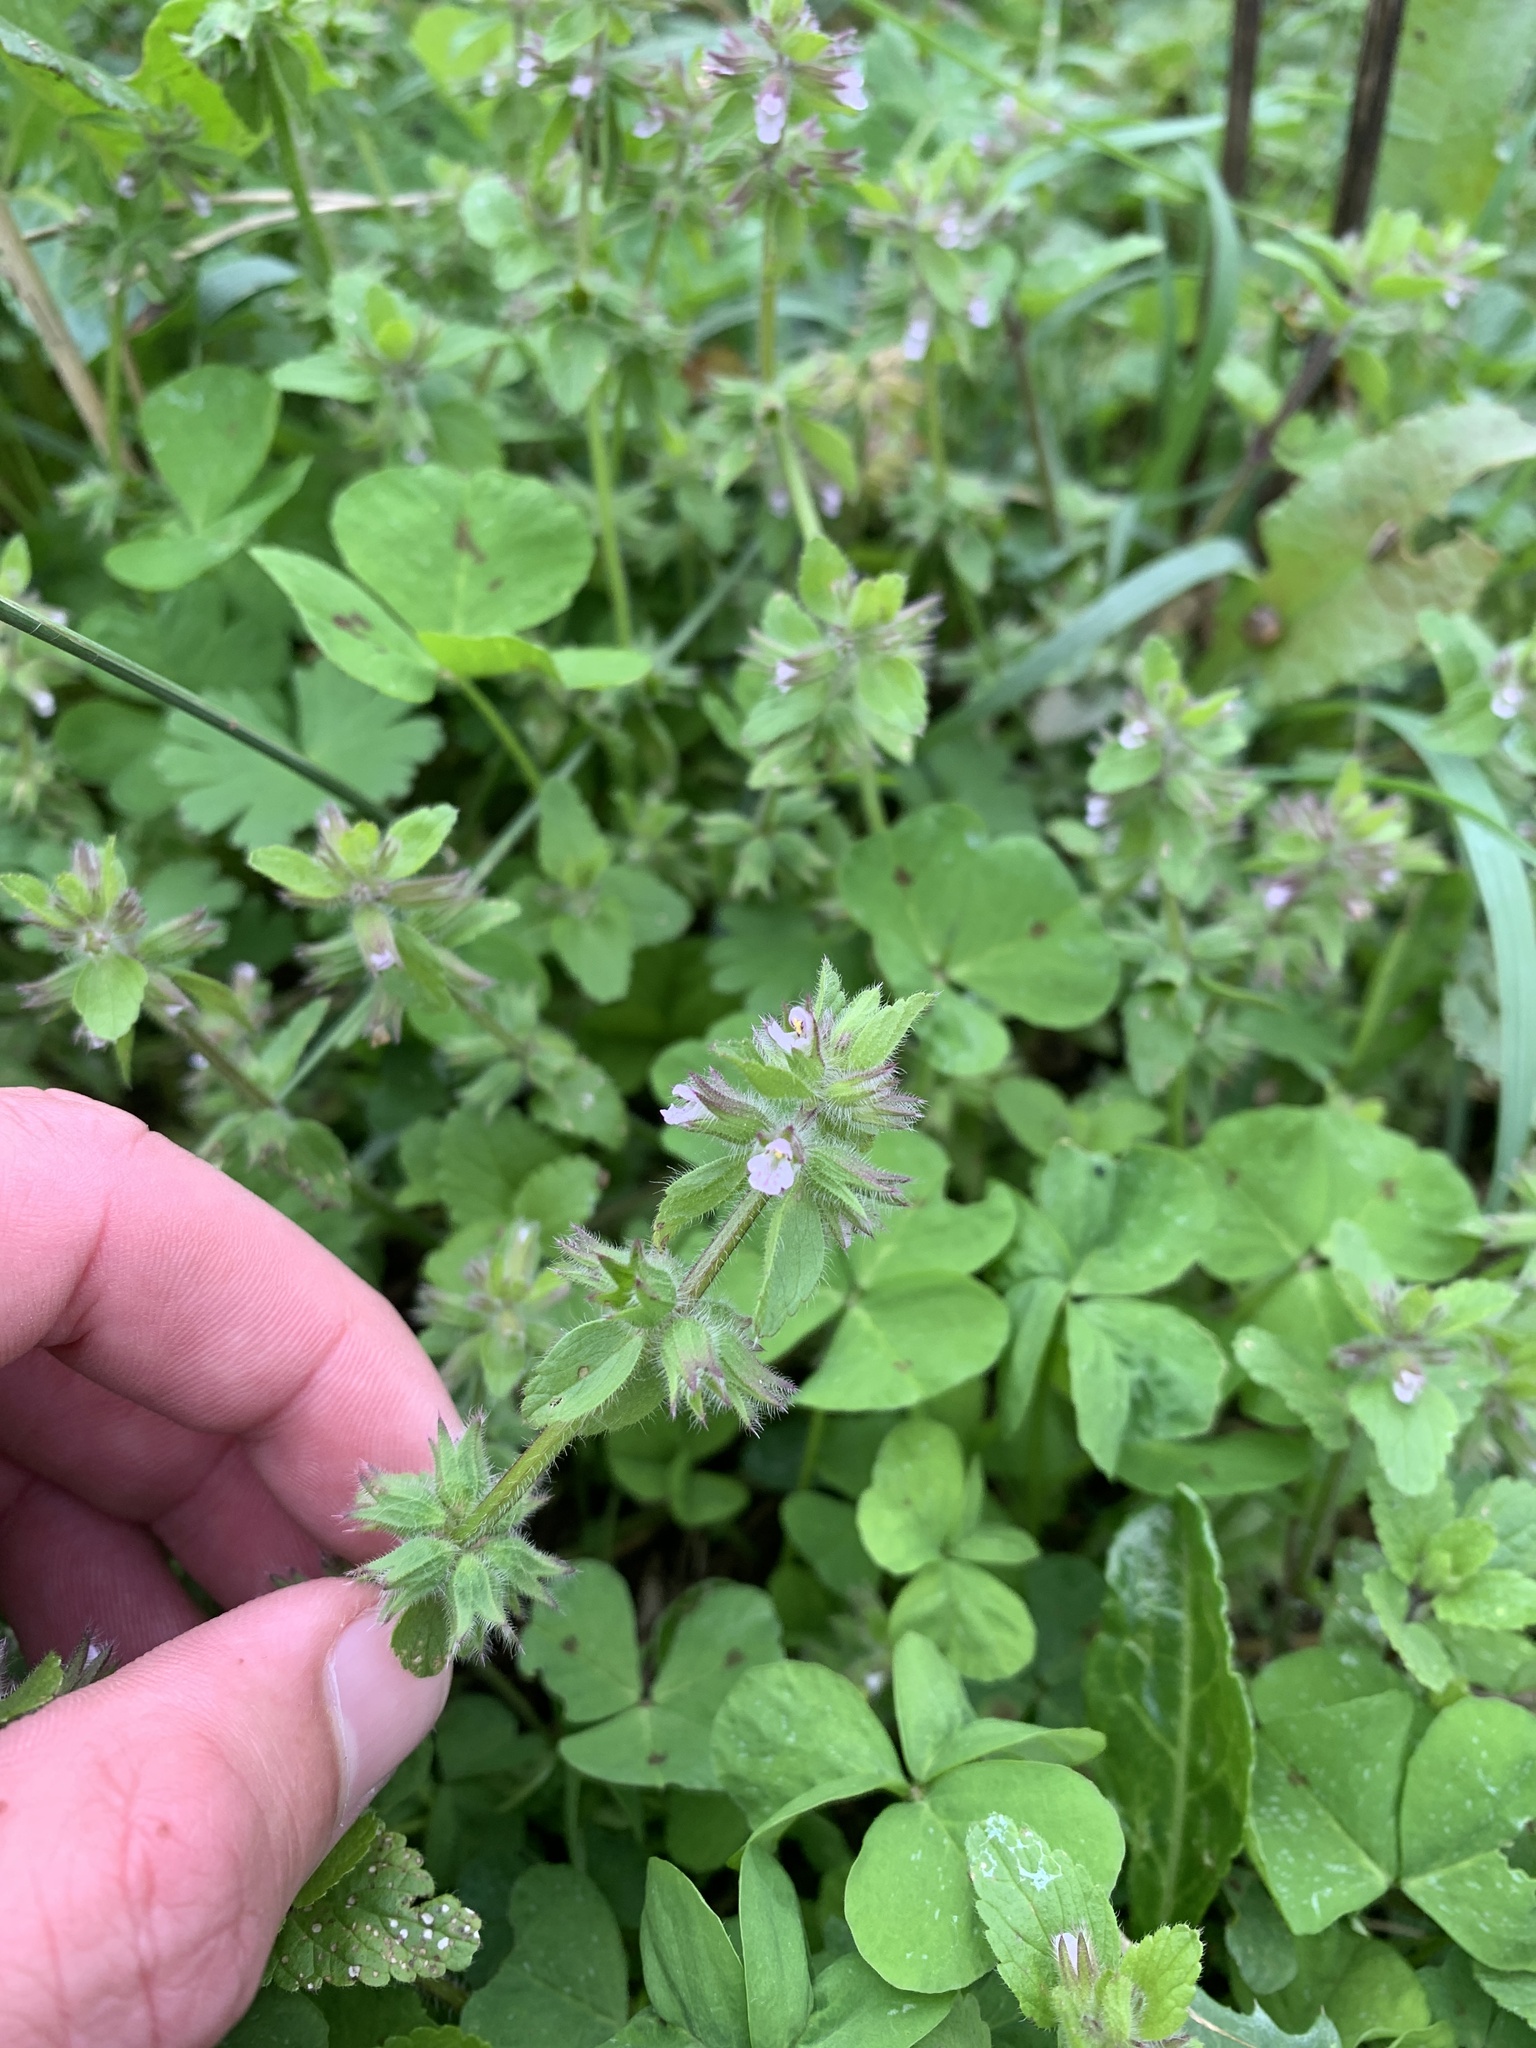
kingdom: Plantae
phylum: Tracheophyta
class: Magnoliopsida
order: Lamiales
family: Lamiaceae
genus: Stachys
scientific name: Stachys arvensis
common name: Field woundwort
